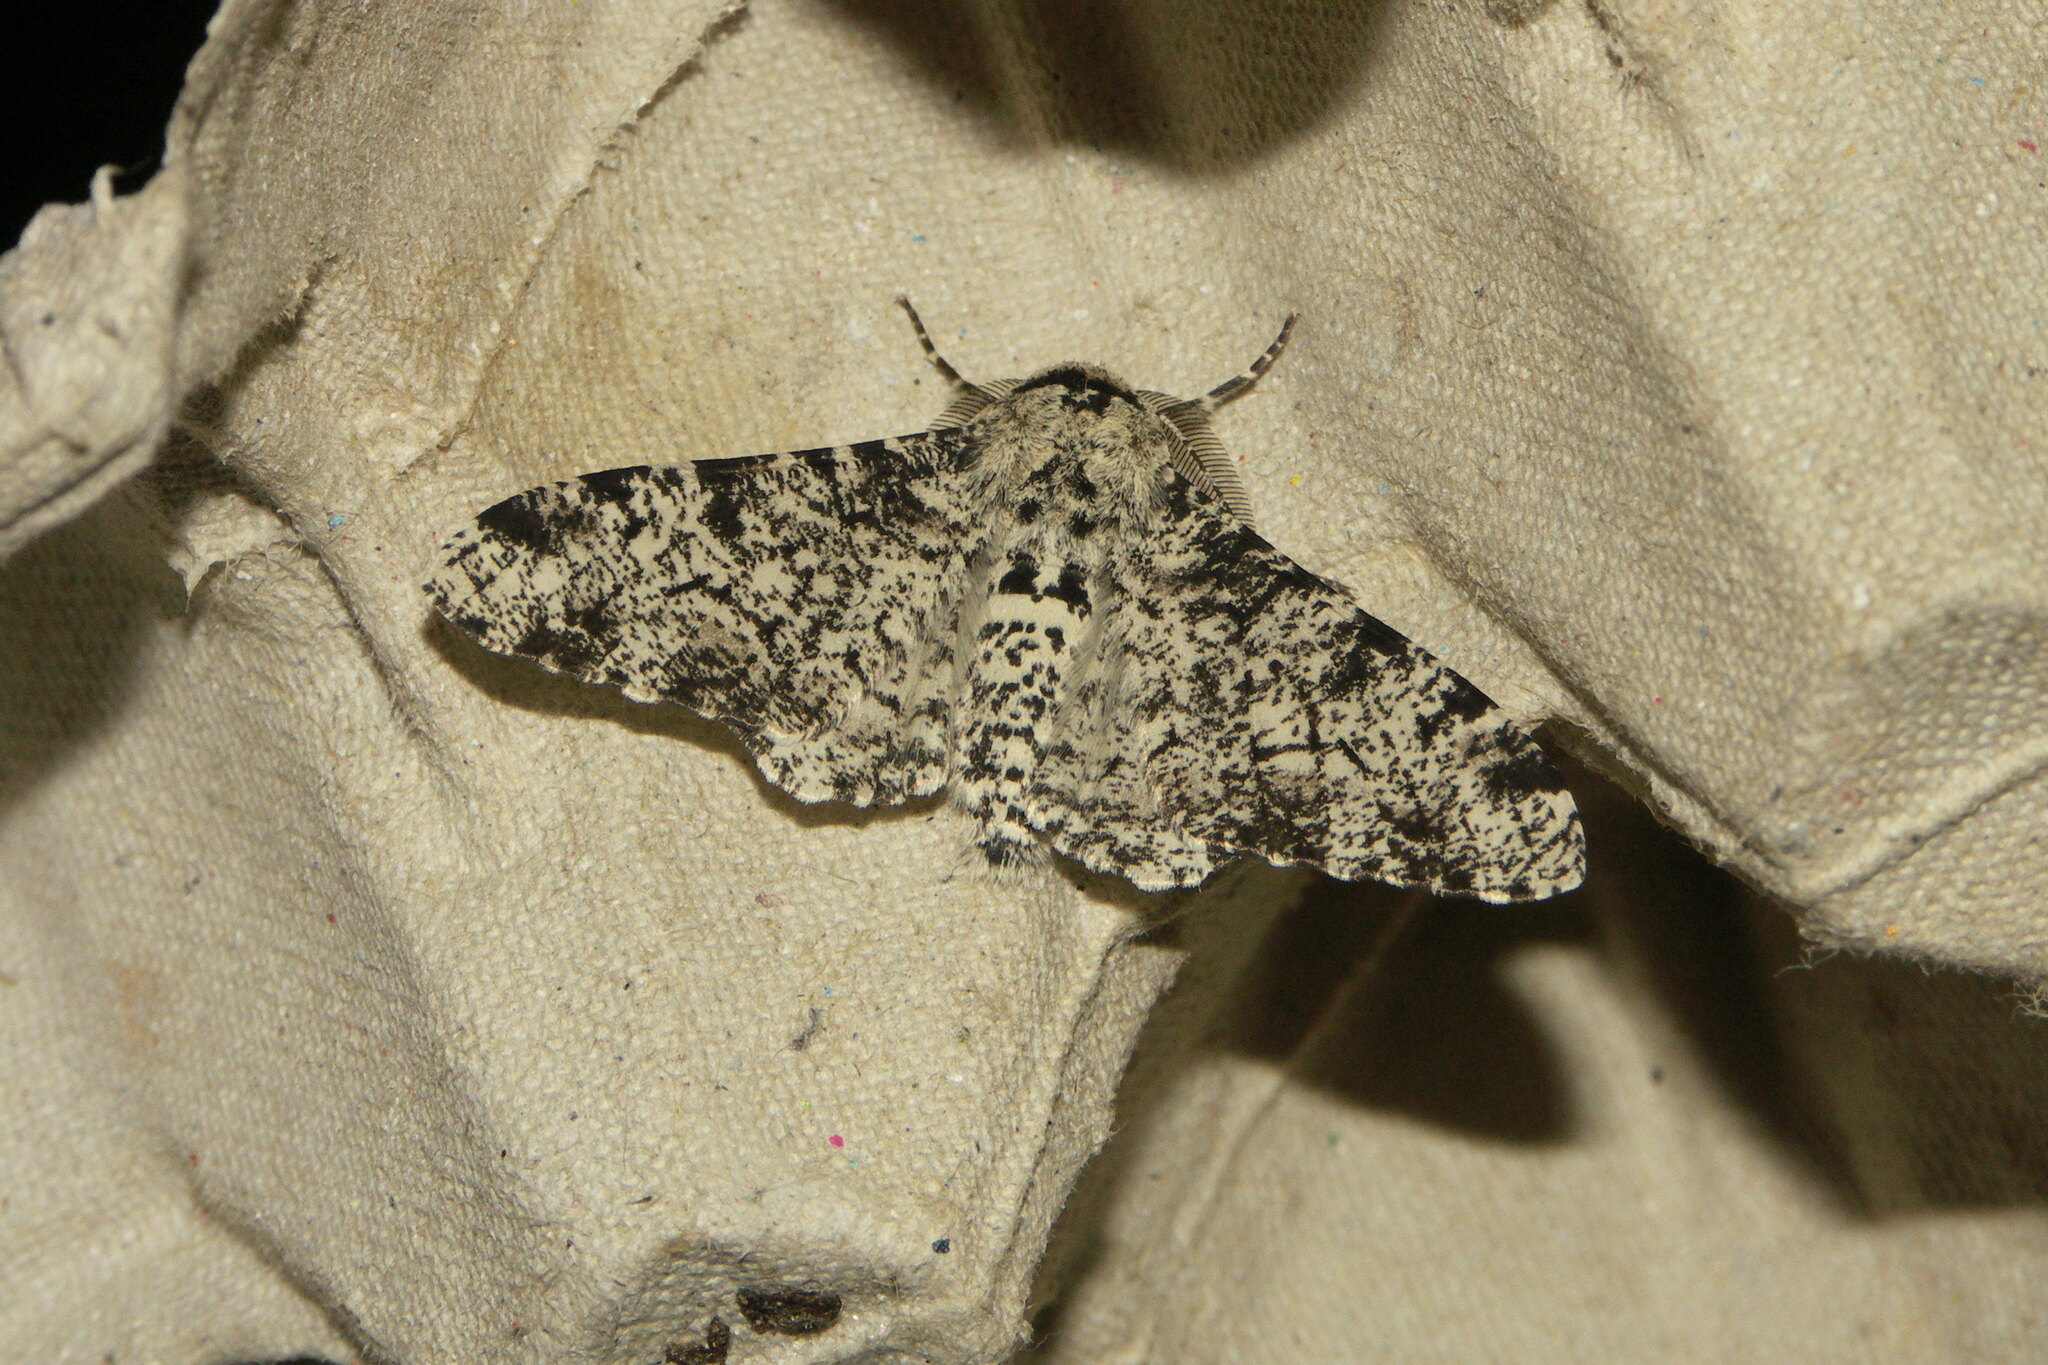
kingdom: Animalia
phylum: Arthropoda
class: Insecta
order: Lepidoptera
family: Geometridae
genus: Biston
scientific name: Biston betularia
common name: Peppered moth
